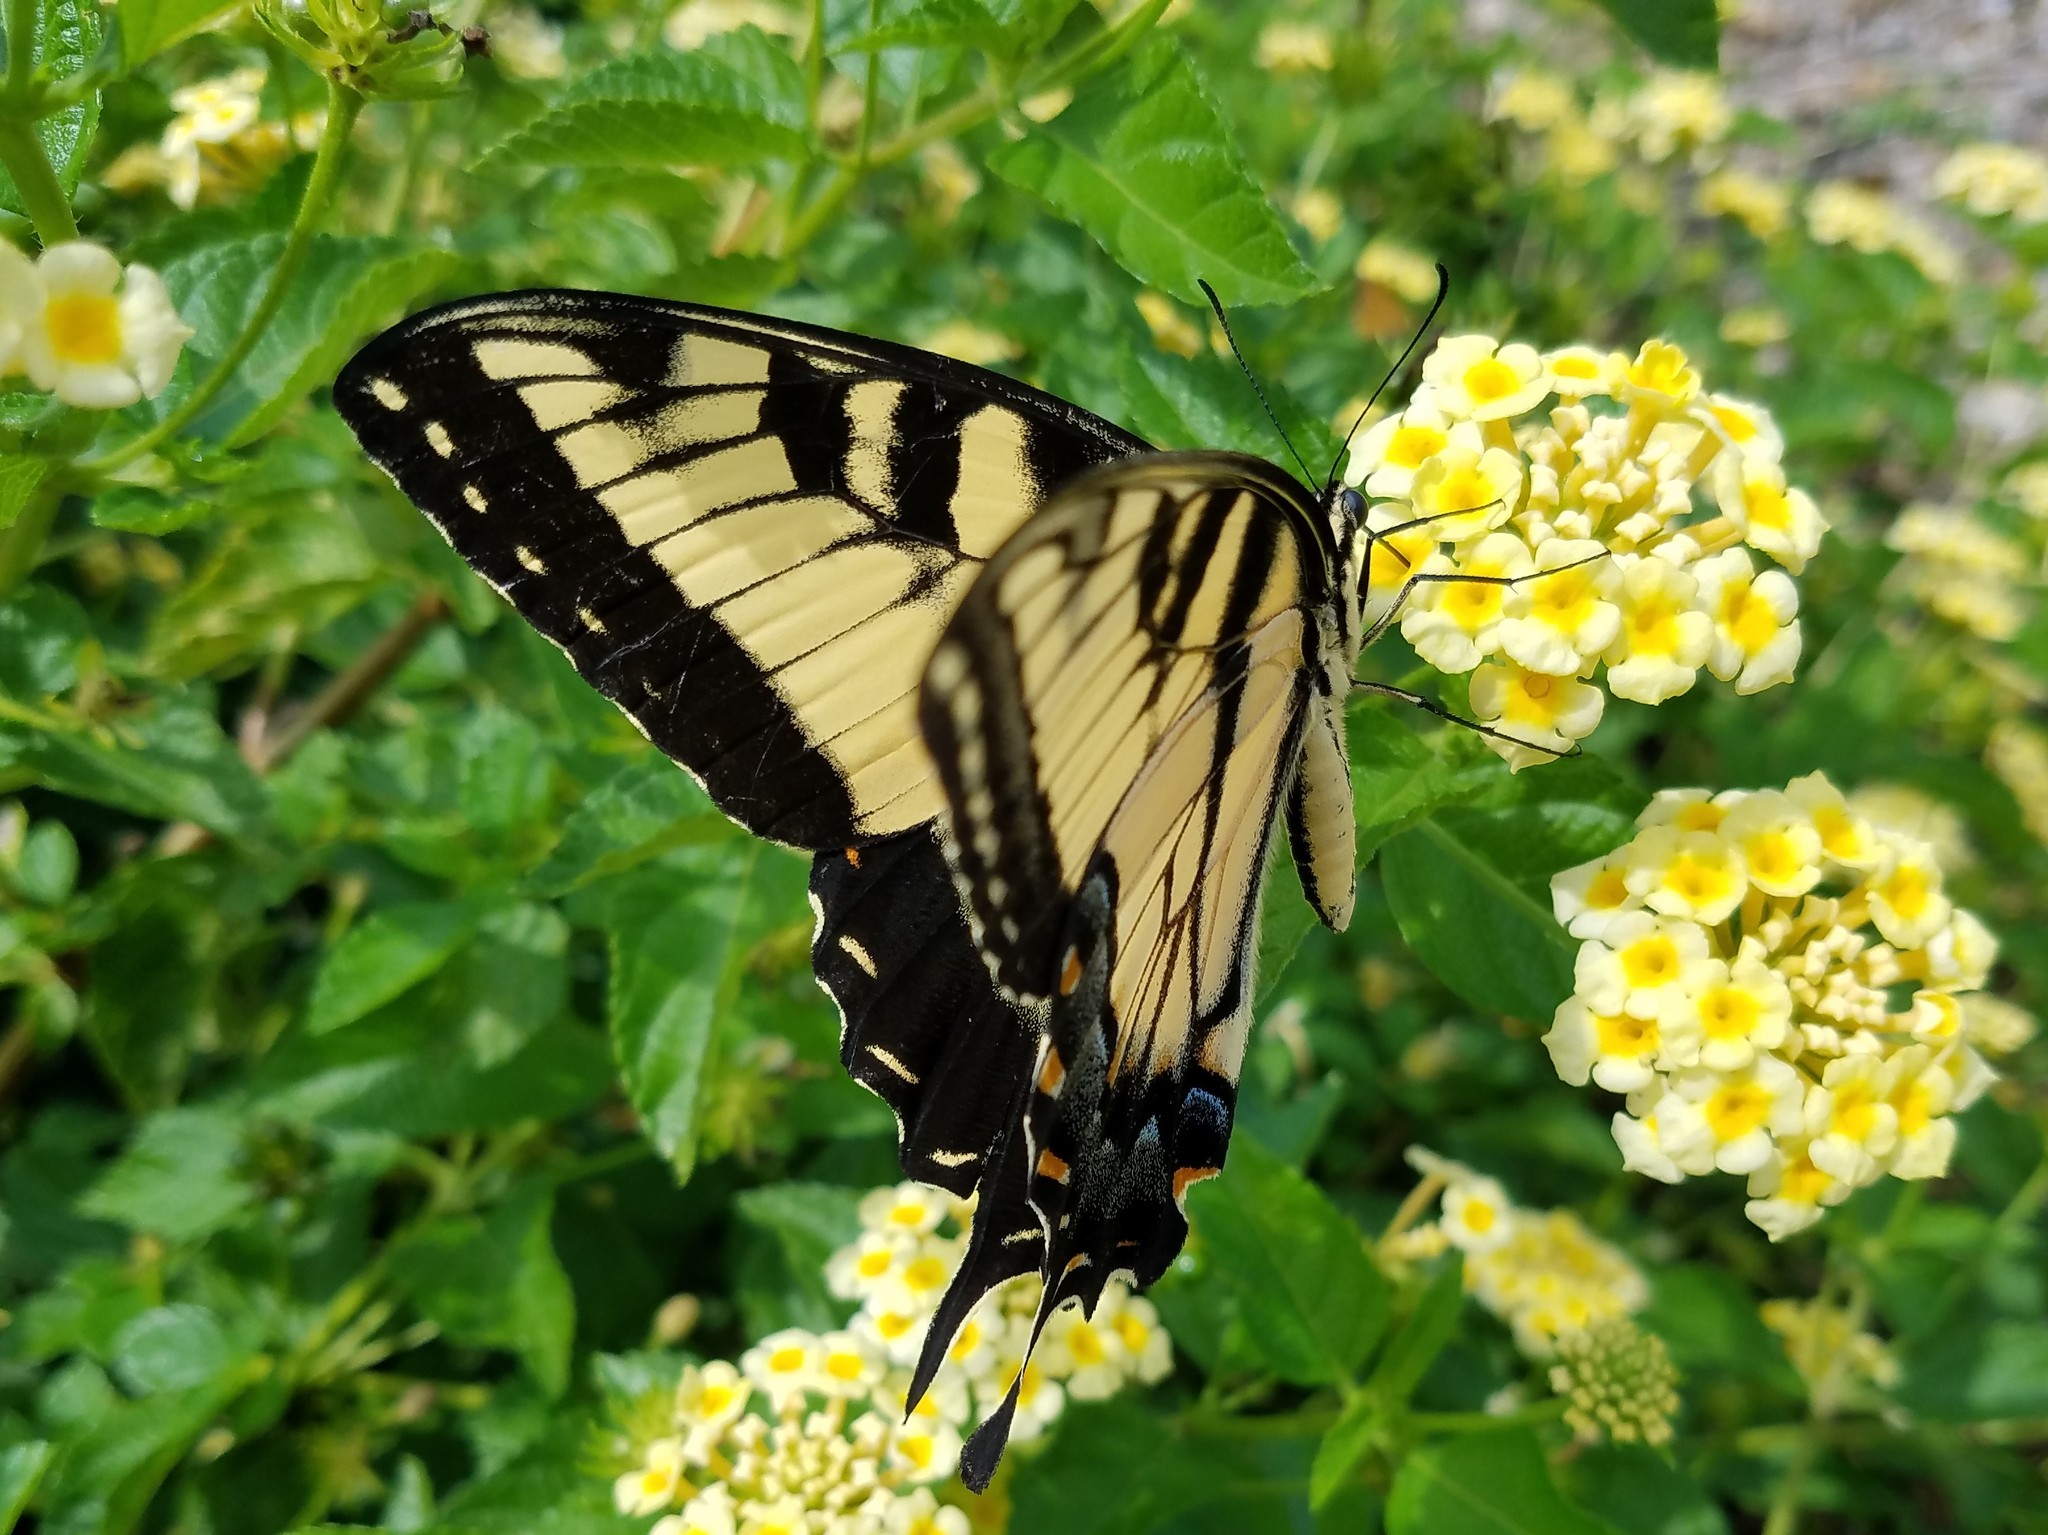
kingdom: Animalia
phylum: Arthropoda
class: Insecta
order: Lepidoptera
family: Papilionidae
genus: Papilio
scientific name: Papilio glaucus
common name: Tiger swallowtail
